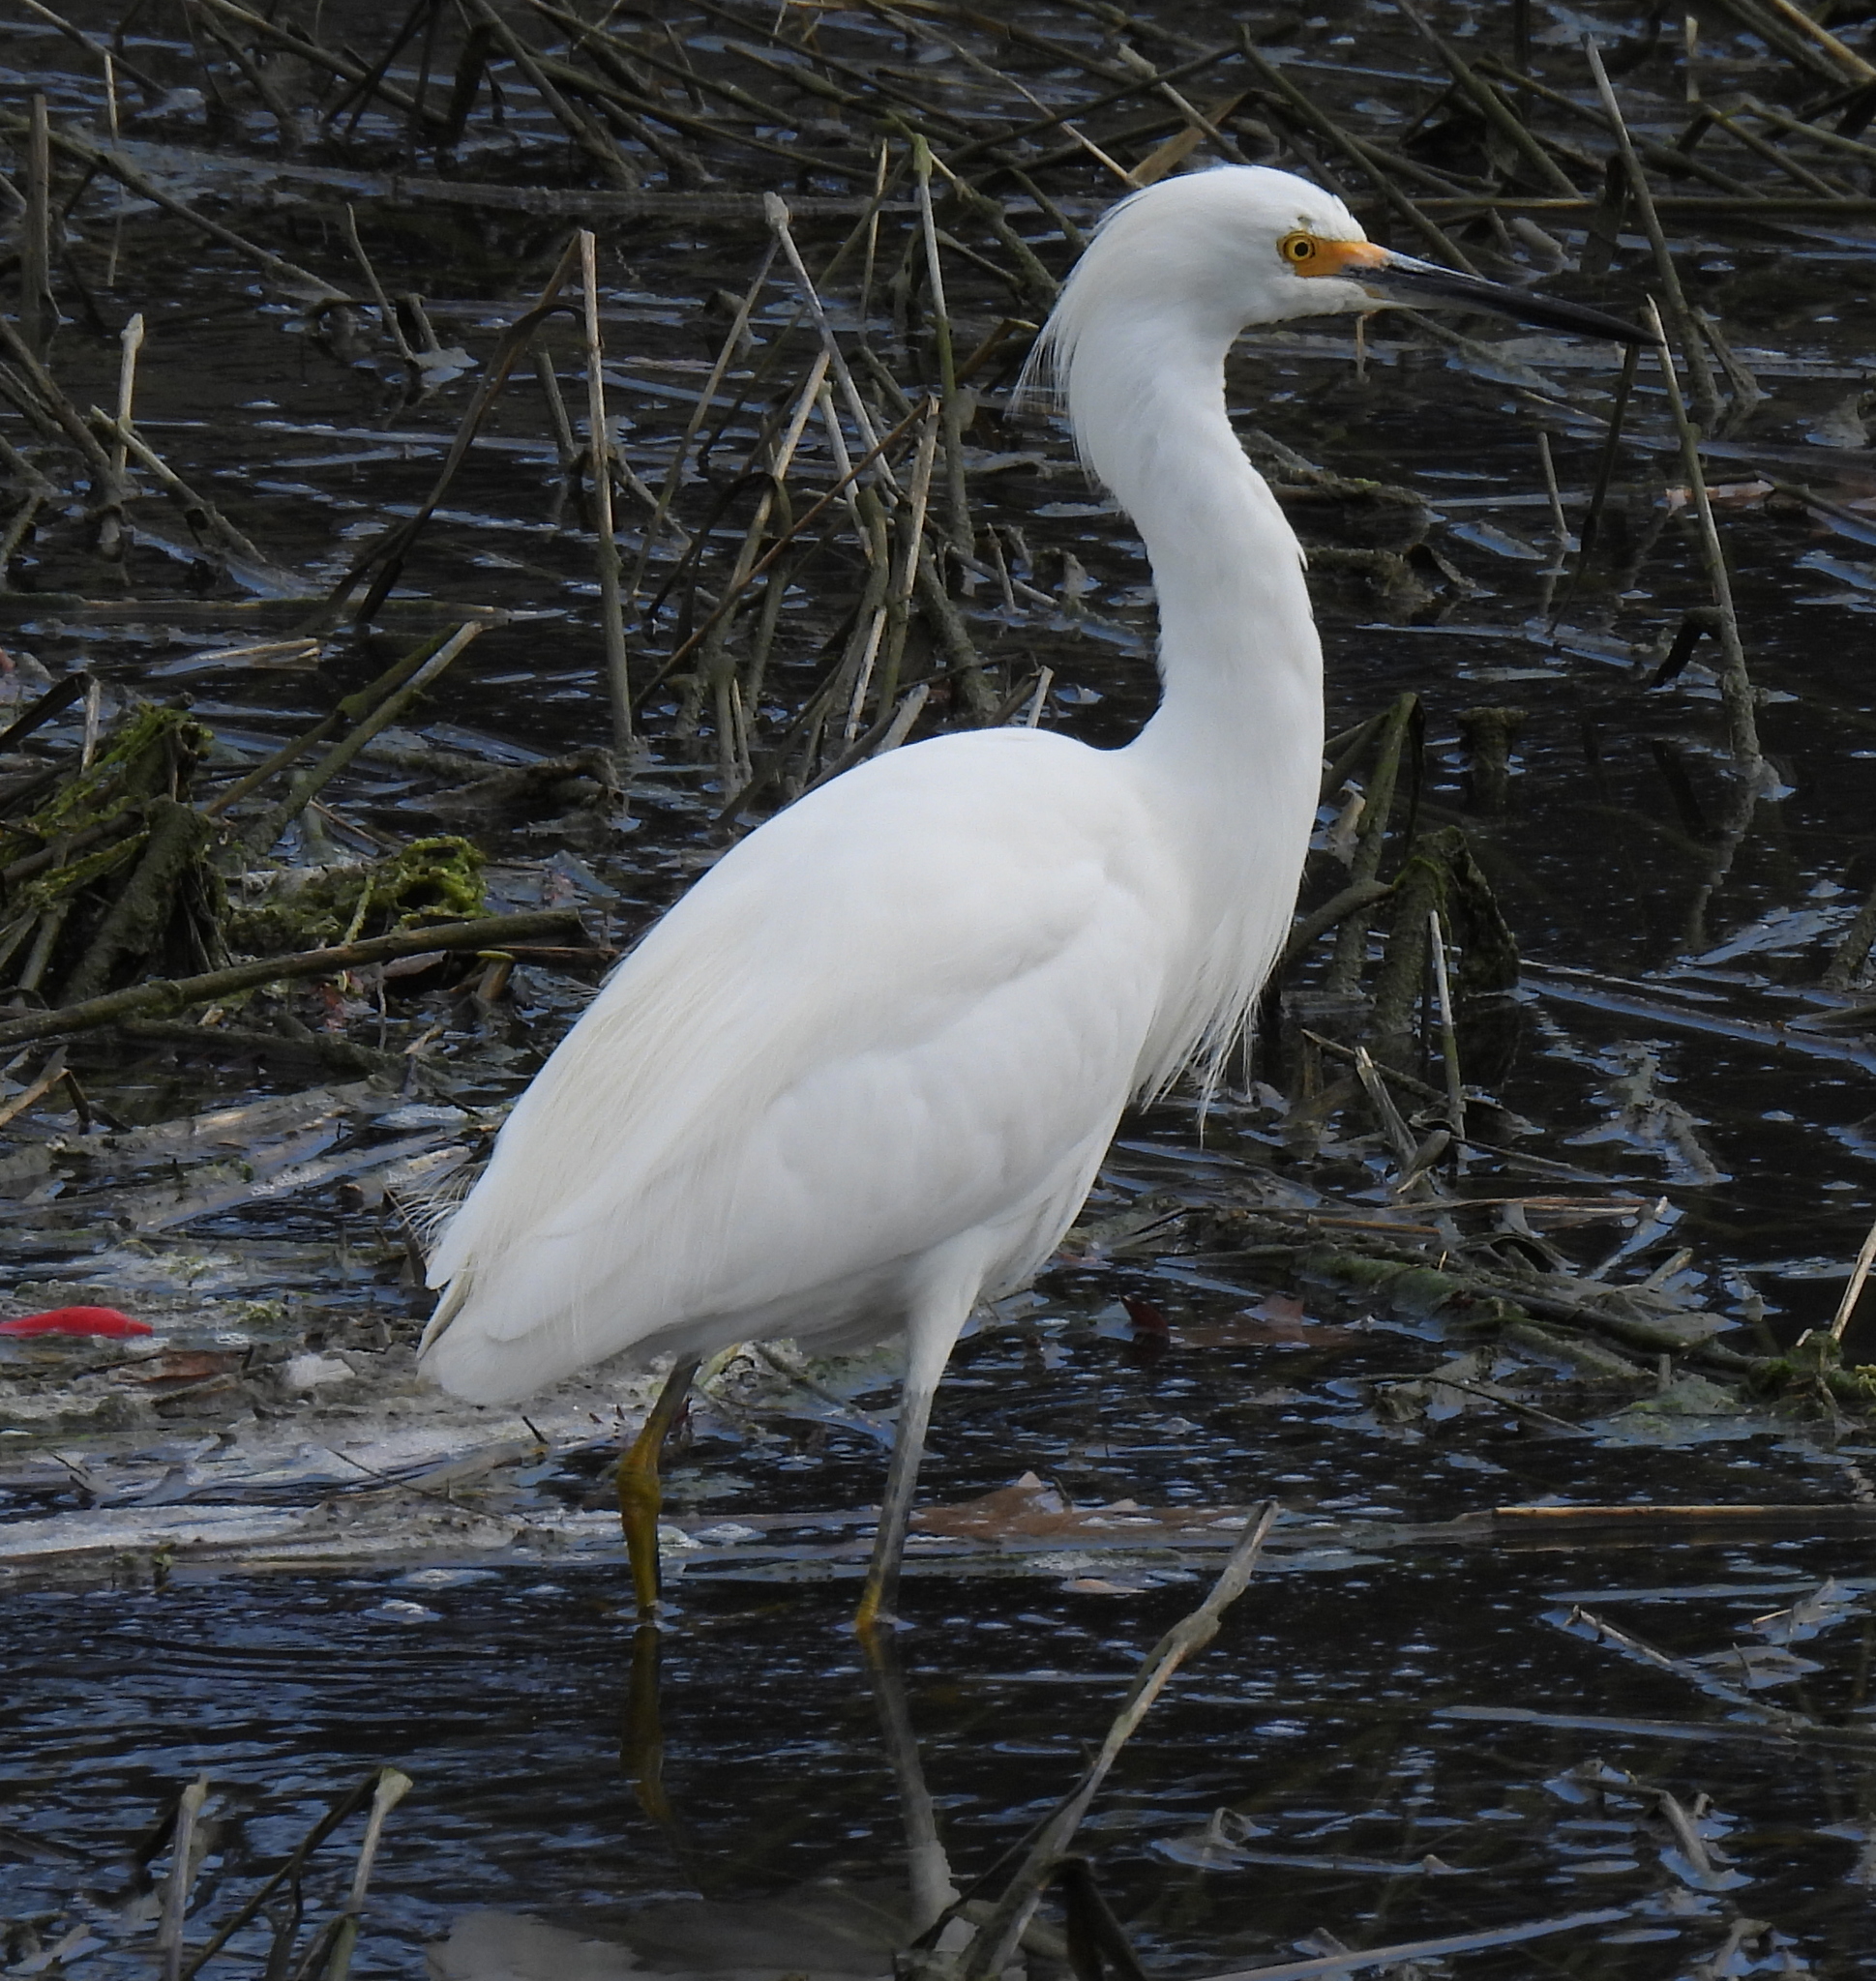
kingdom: Animalia
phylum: Chordata
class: Aves
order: Pelecaniformes
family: Ardeidae
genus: Egretta
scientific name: Egretta thula
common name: Snowy egret
